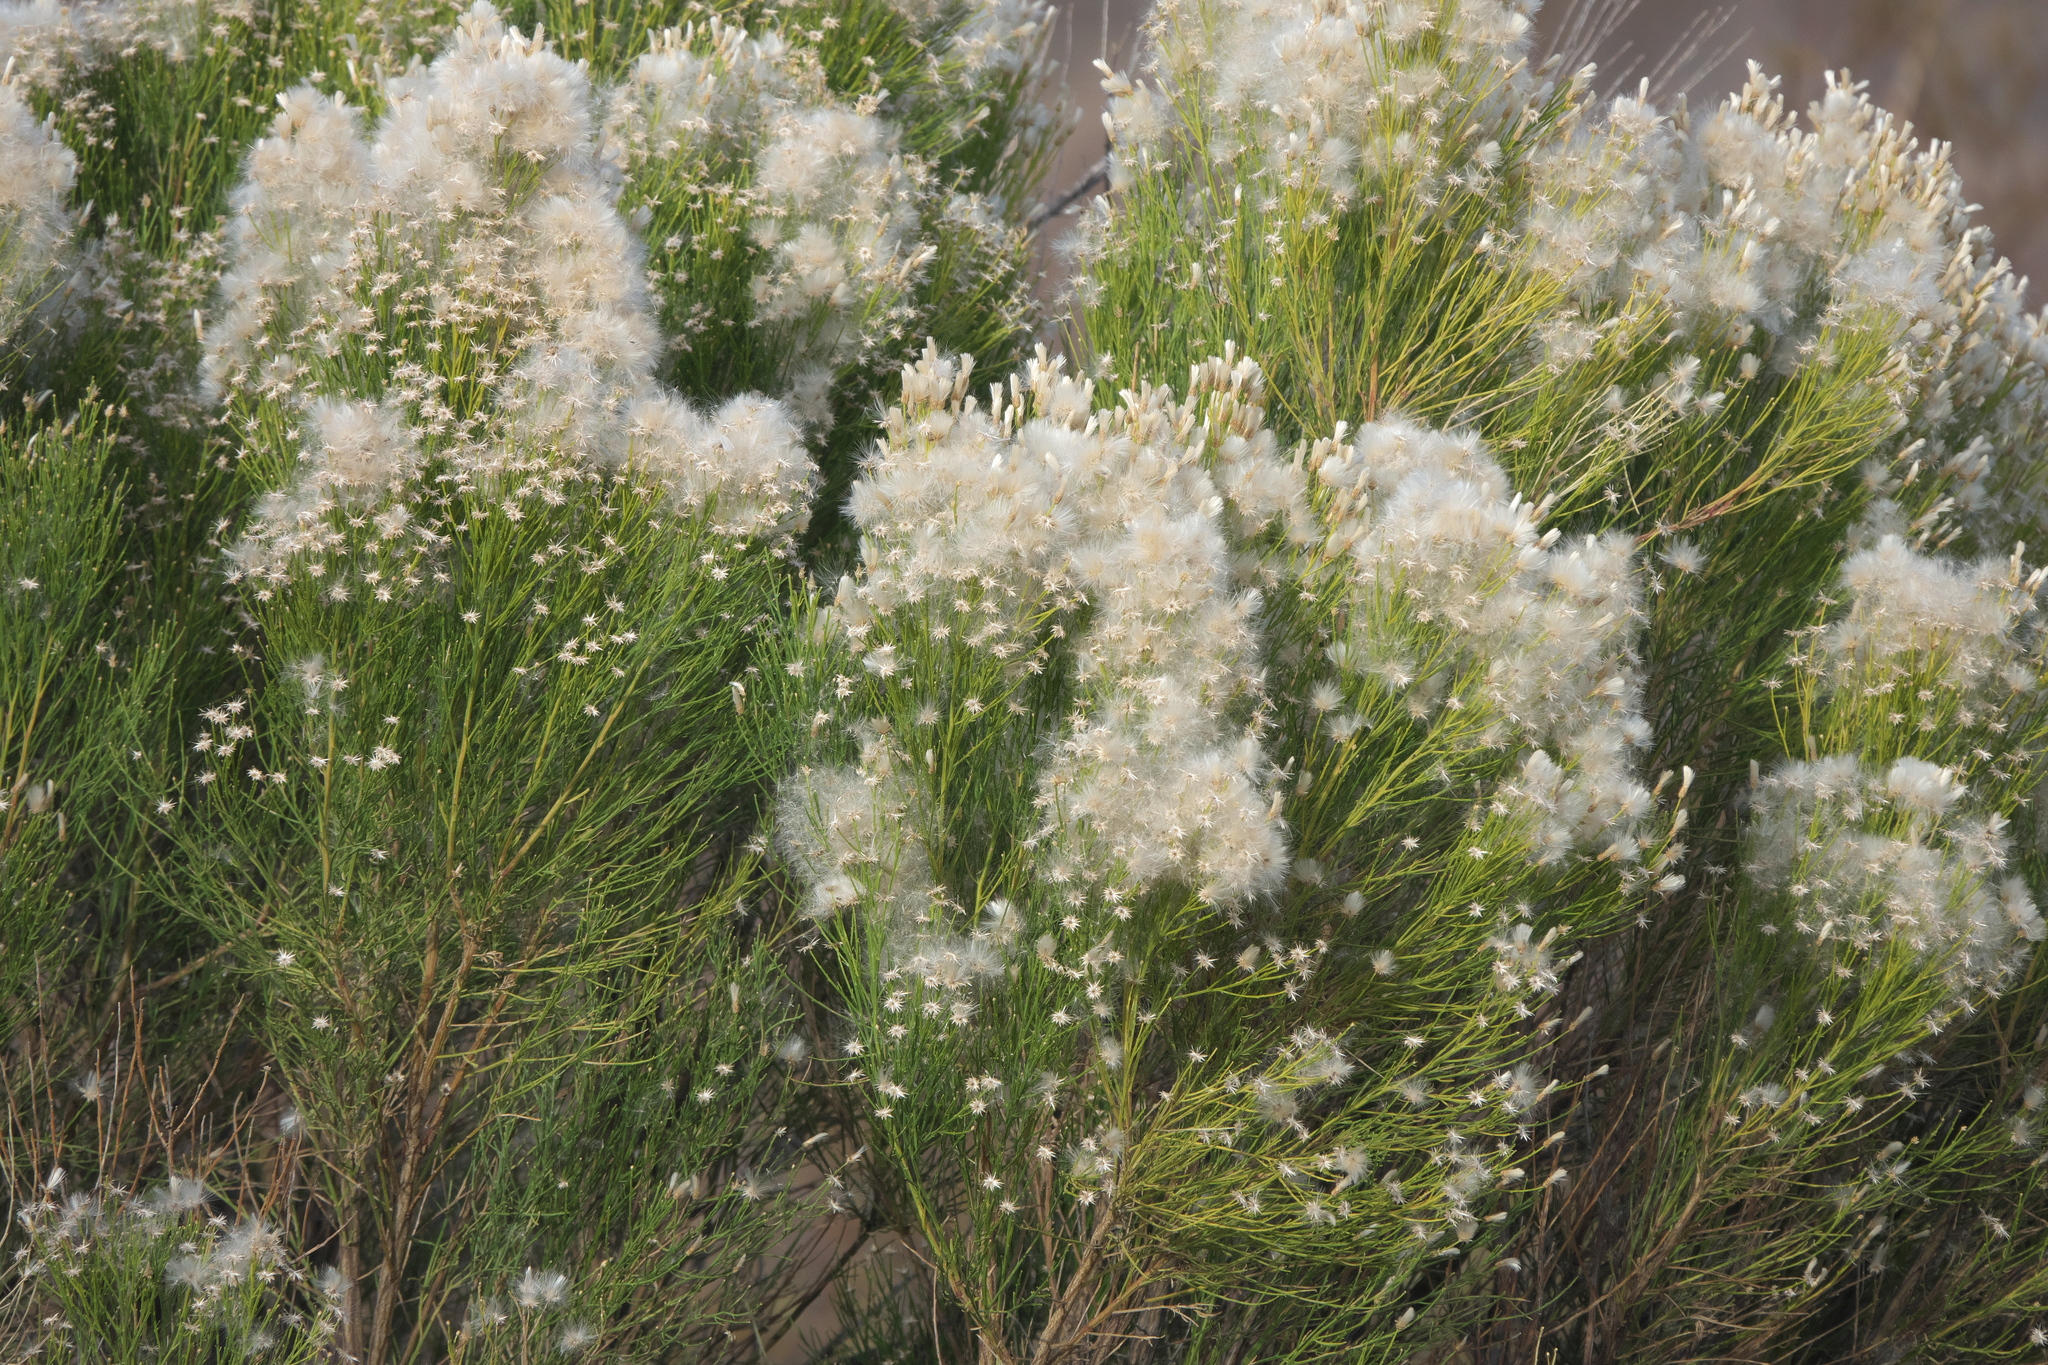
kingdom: Plantae
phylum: Tracheophyta
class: Magnoliopsida
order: Asterales
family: Asteraceae
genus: Baccharis
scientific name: Baccharis sarothroides
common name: Desert-broom
